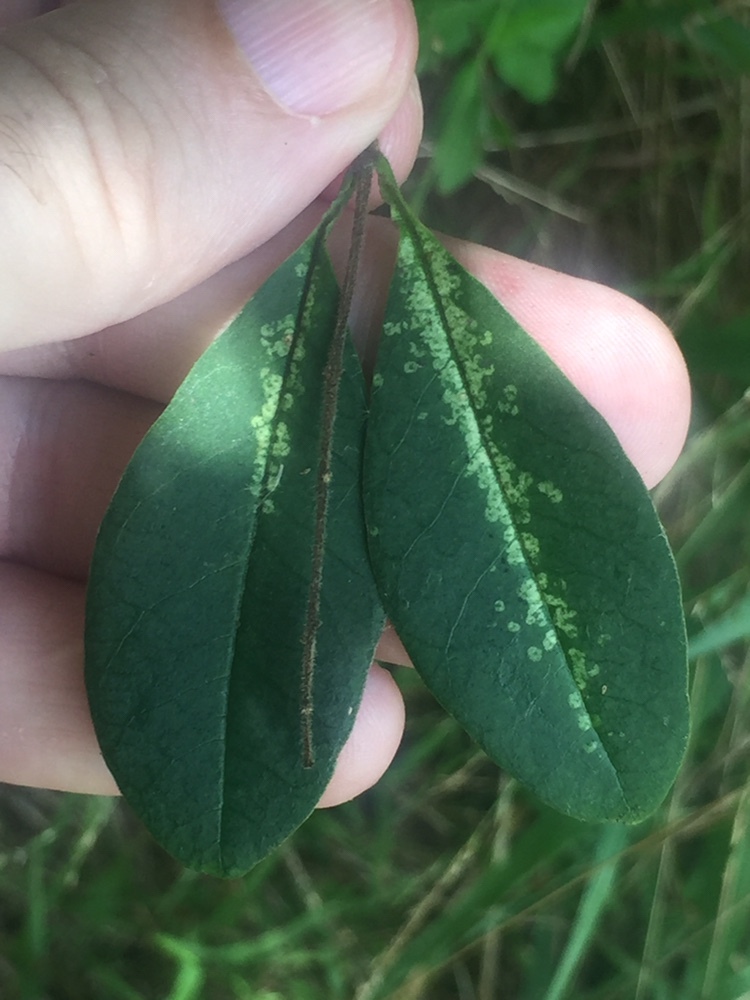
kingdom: Animalia
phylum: Arthropoda
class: Insecta
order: Hemiptera
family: Tingidae
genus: Leptoypha
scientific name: Leptoypha hospita
